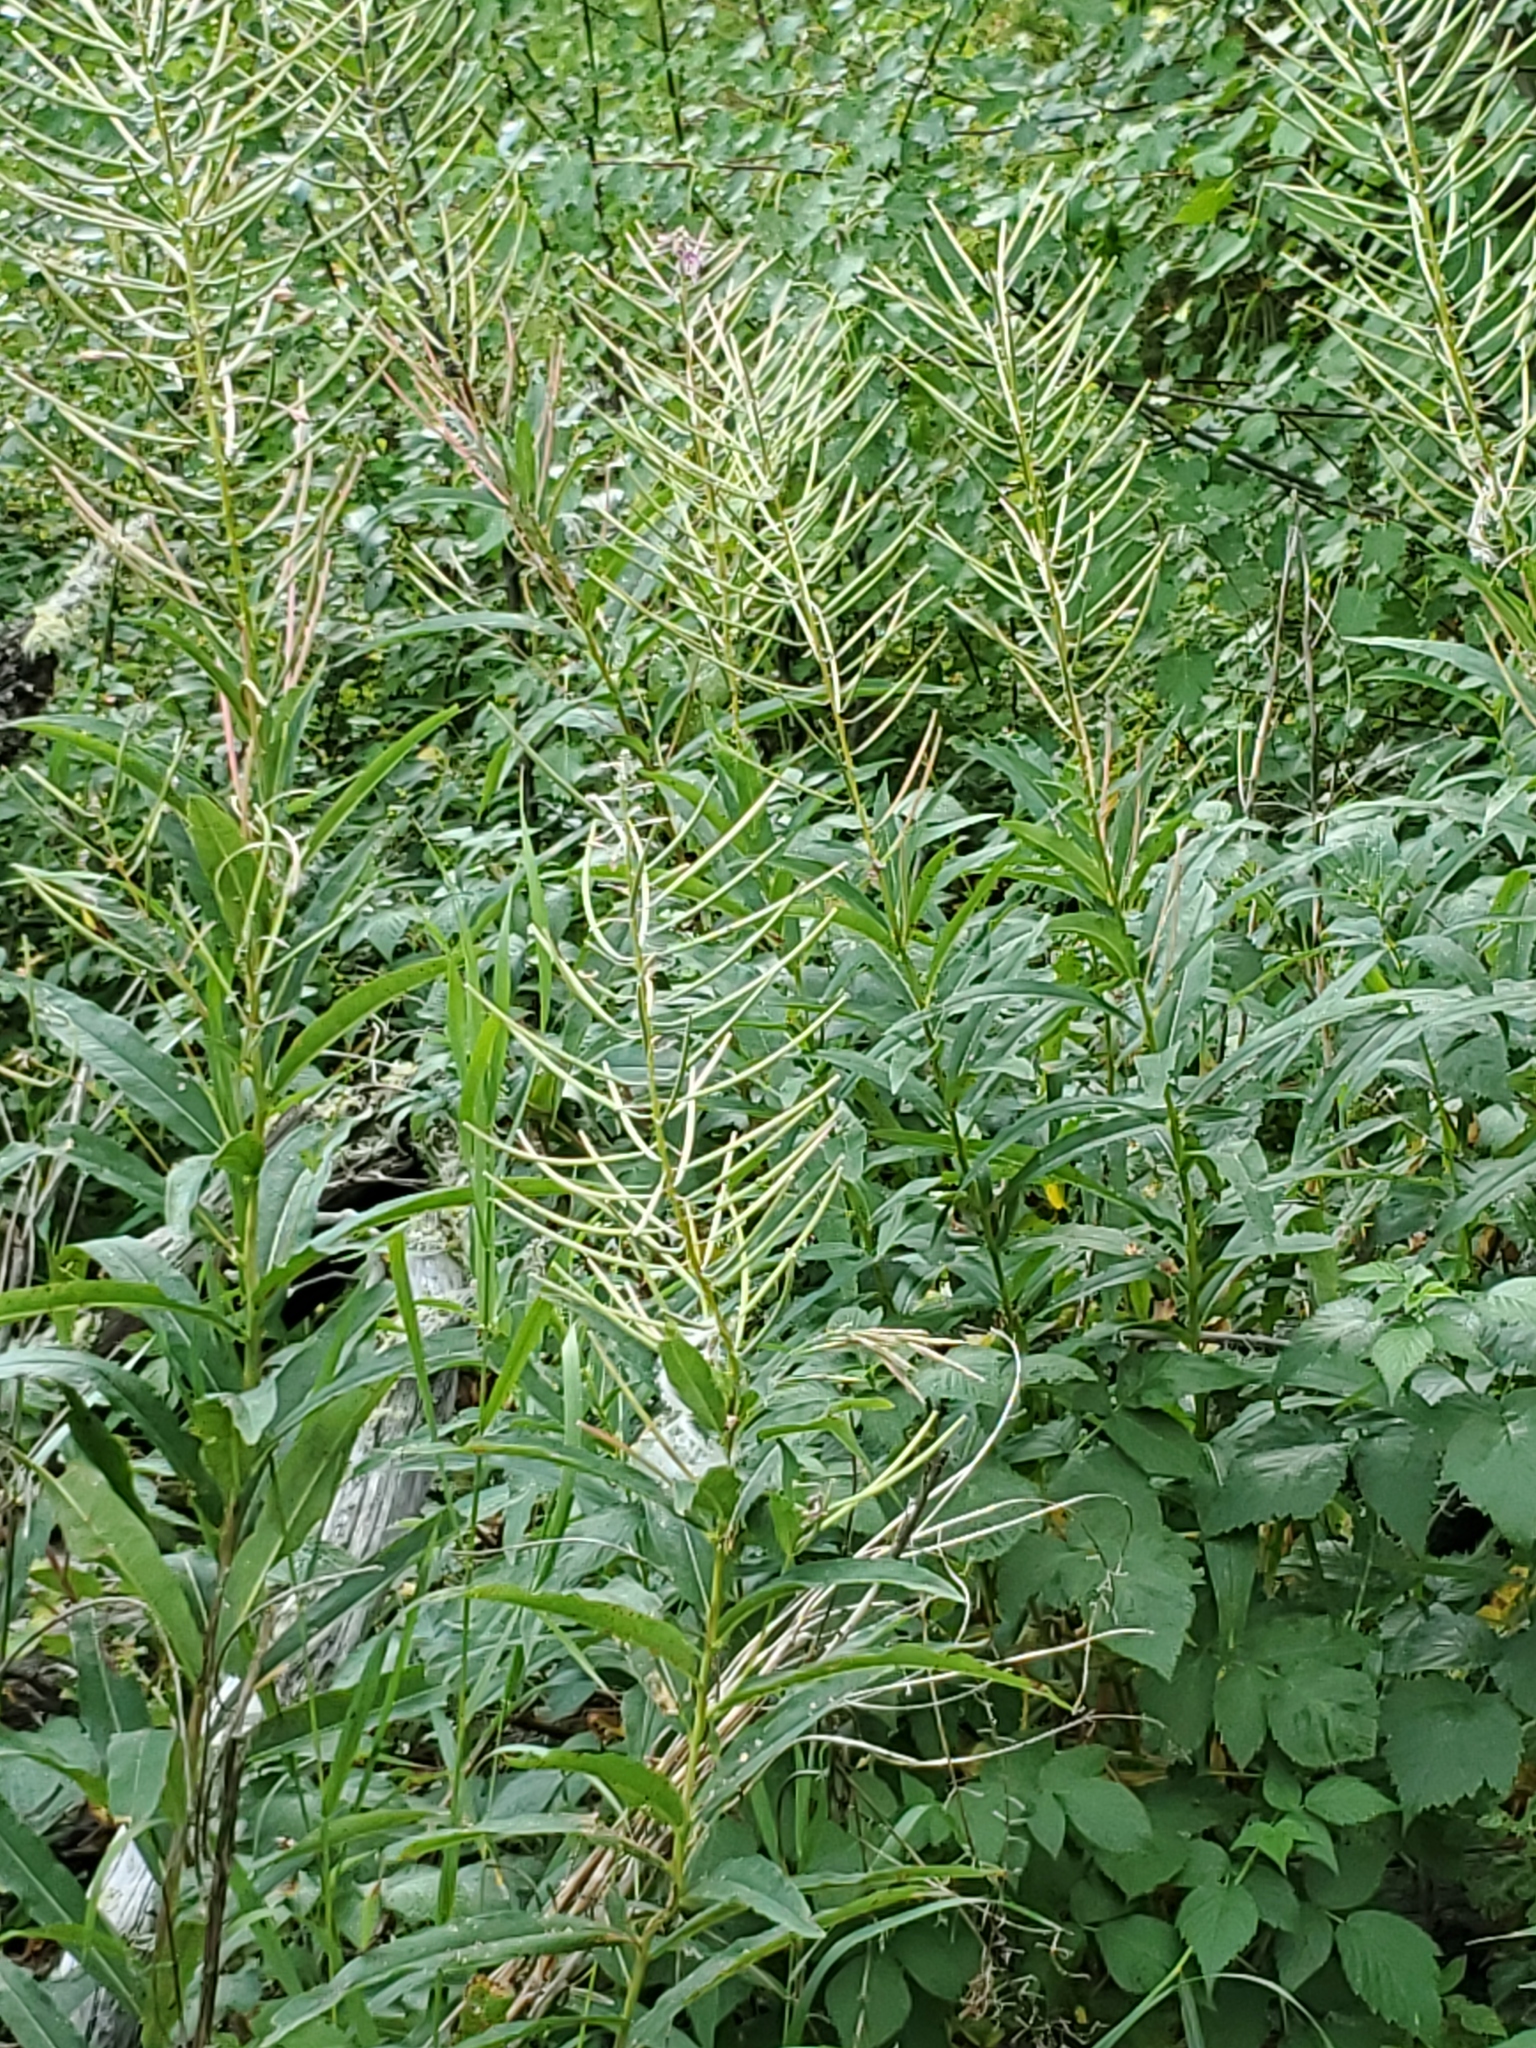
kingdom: Plantae
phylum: Tracheophyta
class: Magnoliopsida
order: Myrtales
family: Onagraceae
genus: Chamaenerion
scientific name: Chamaenerion angustifolium
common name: Fireweed
